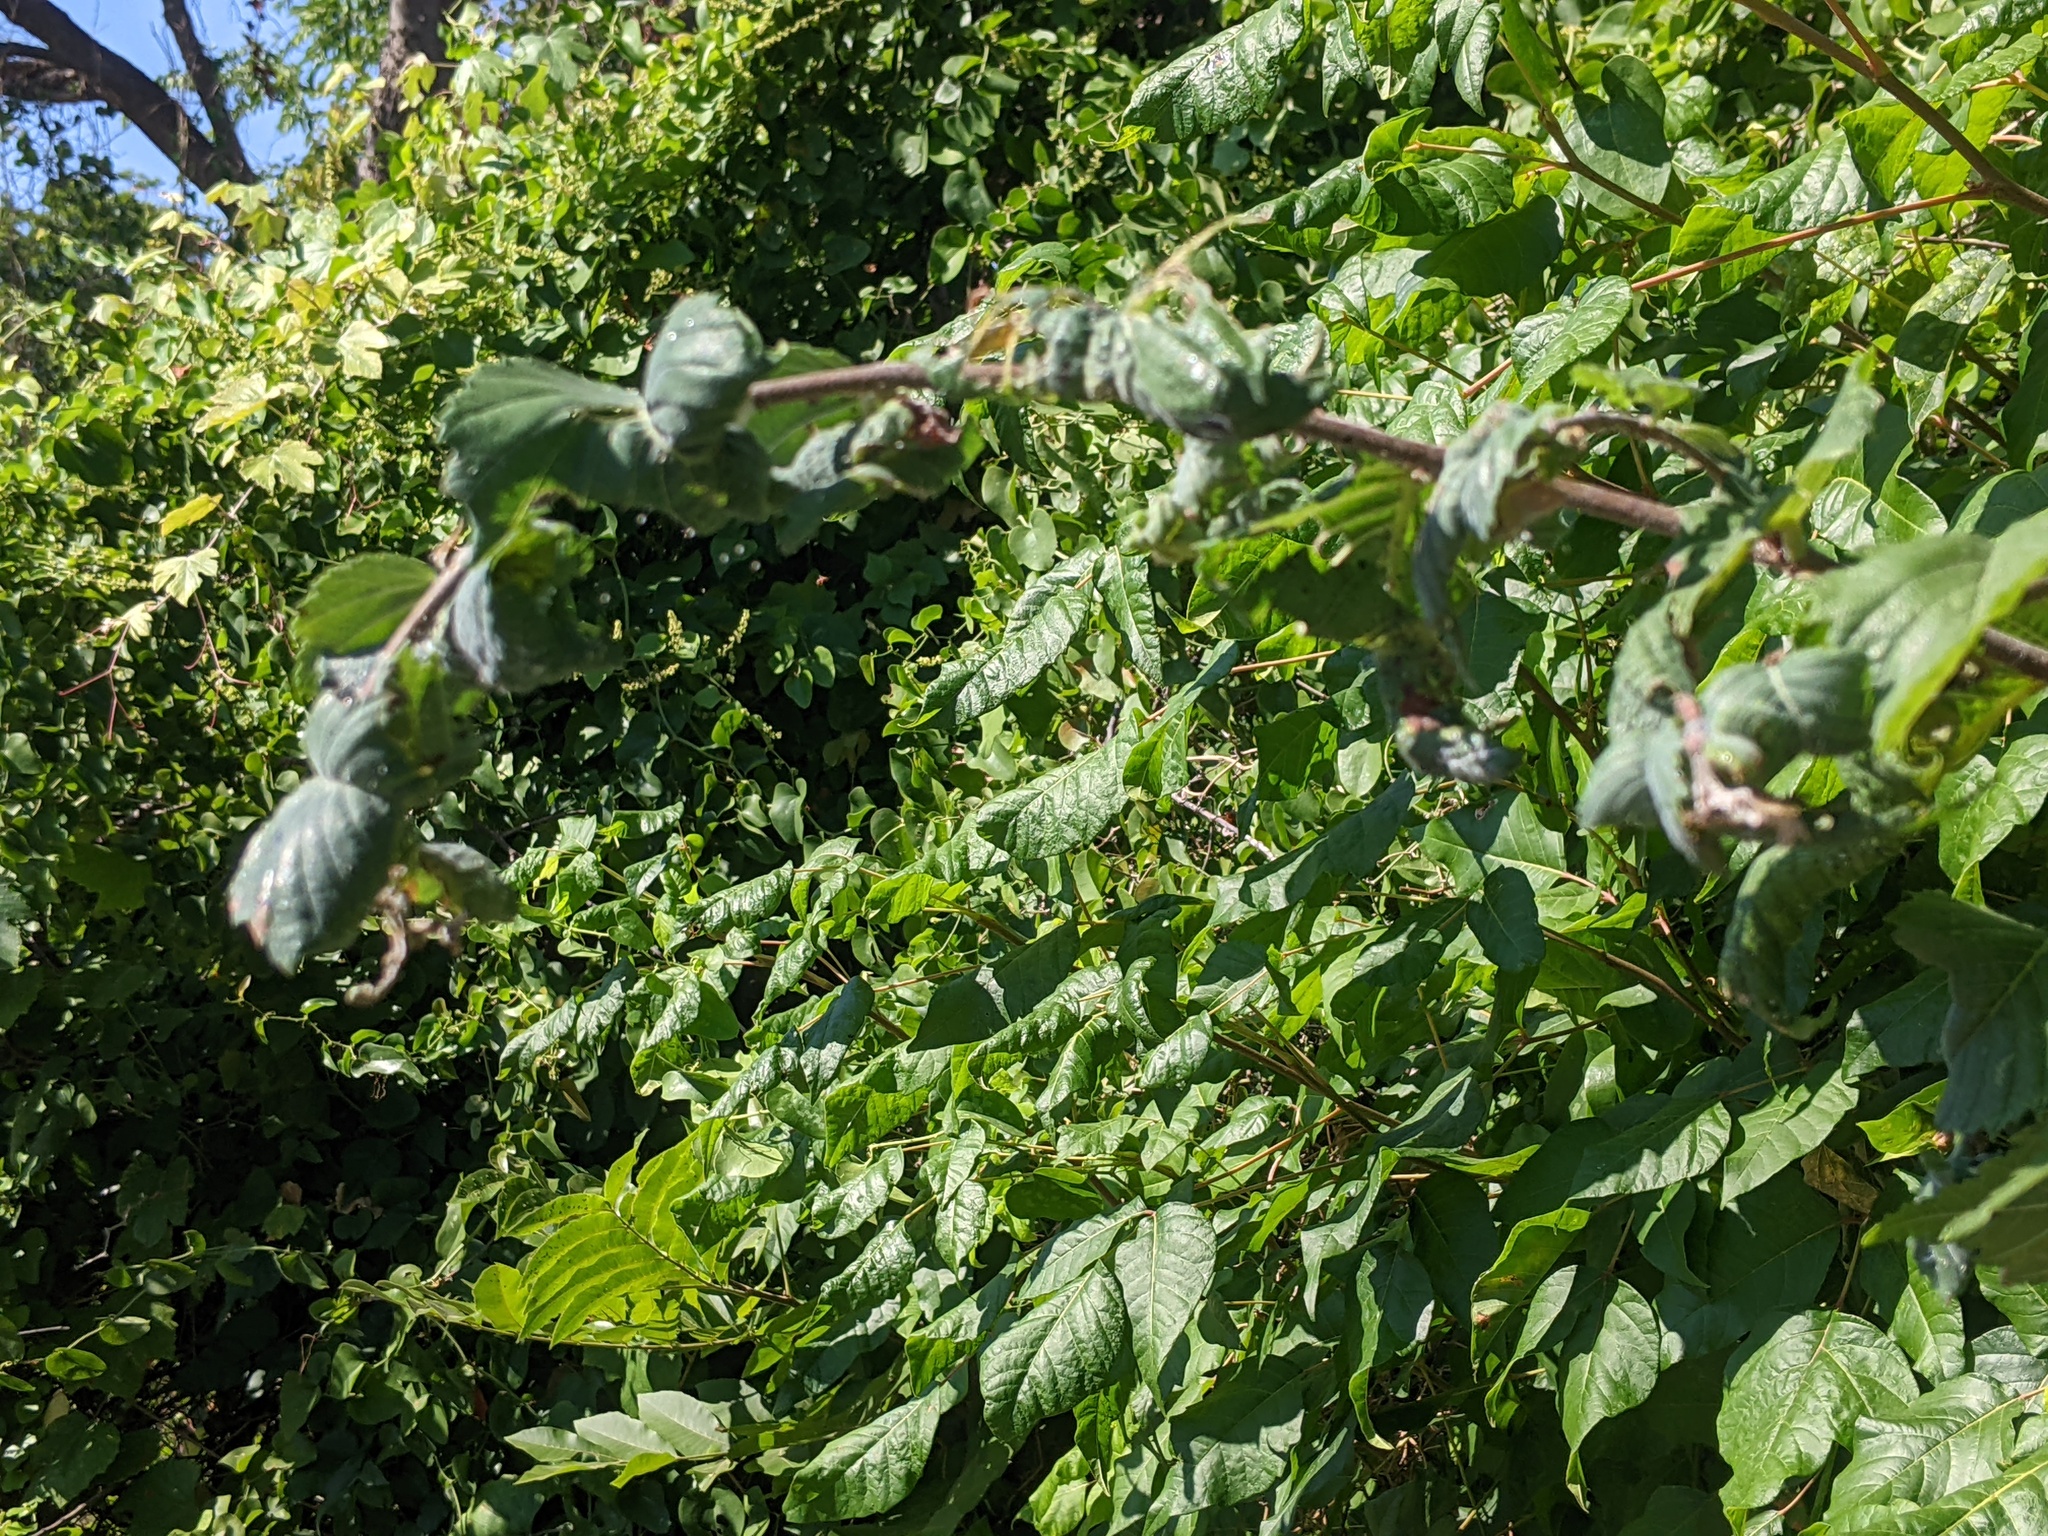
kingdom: Animalia
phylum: Arthropoda
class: Insecta
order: Hemiptera
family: Aphididae
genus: Eriosoma
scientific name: Eriosoma americanum
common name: Woolly elm aphid
